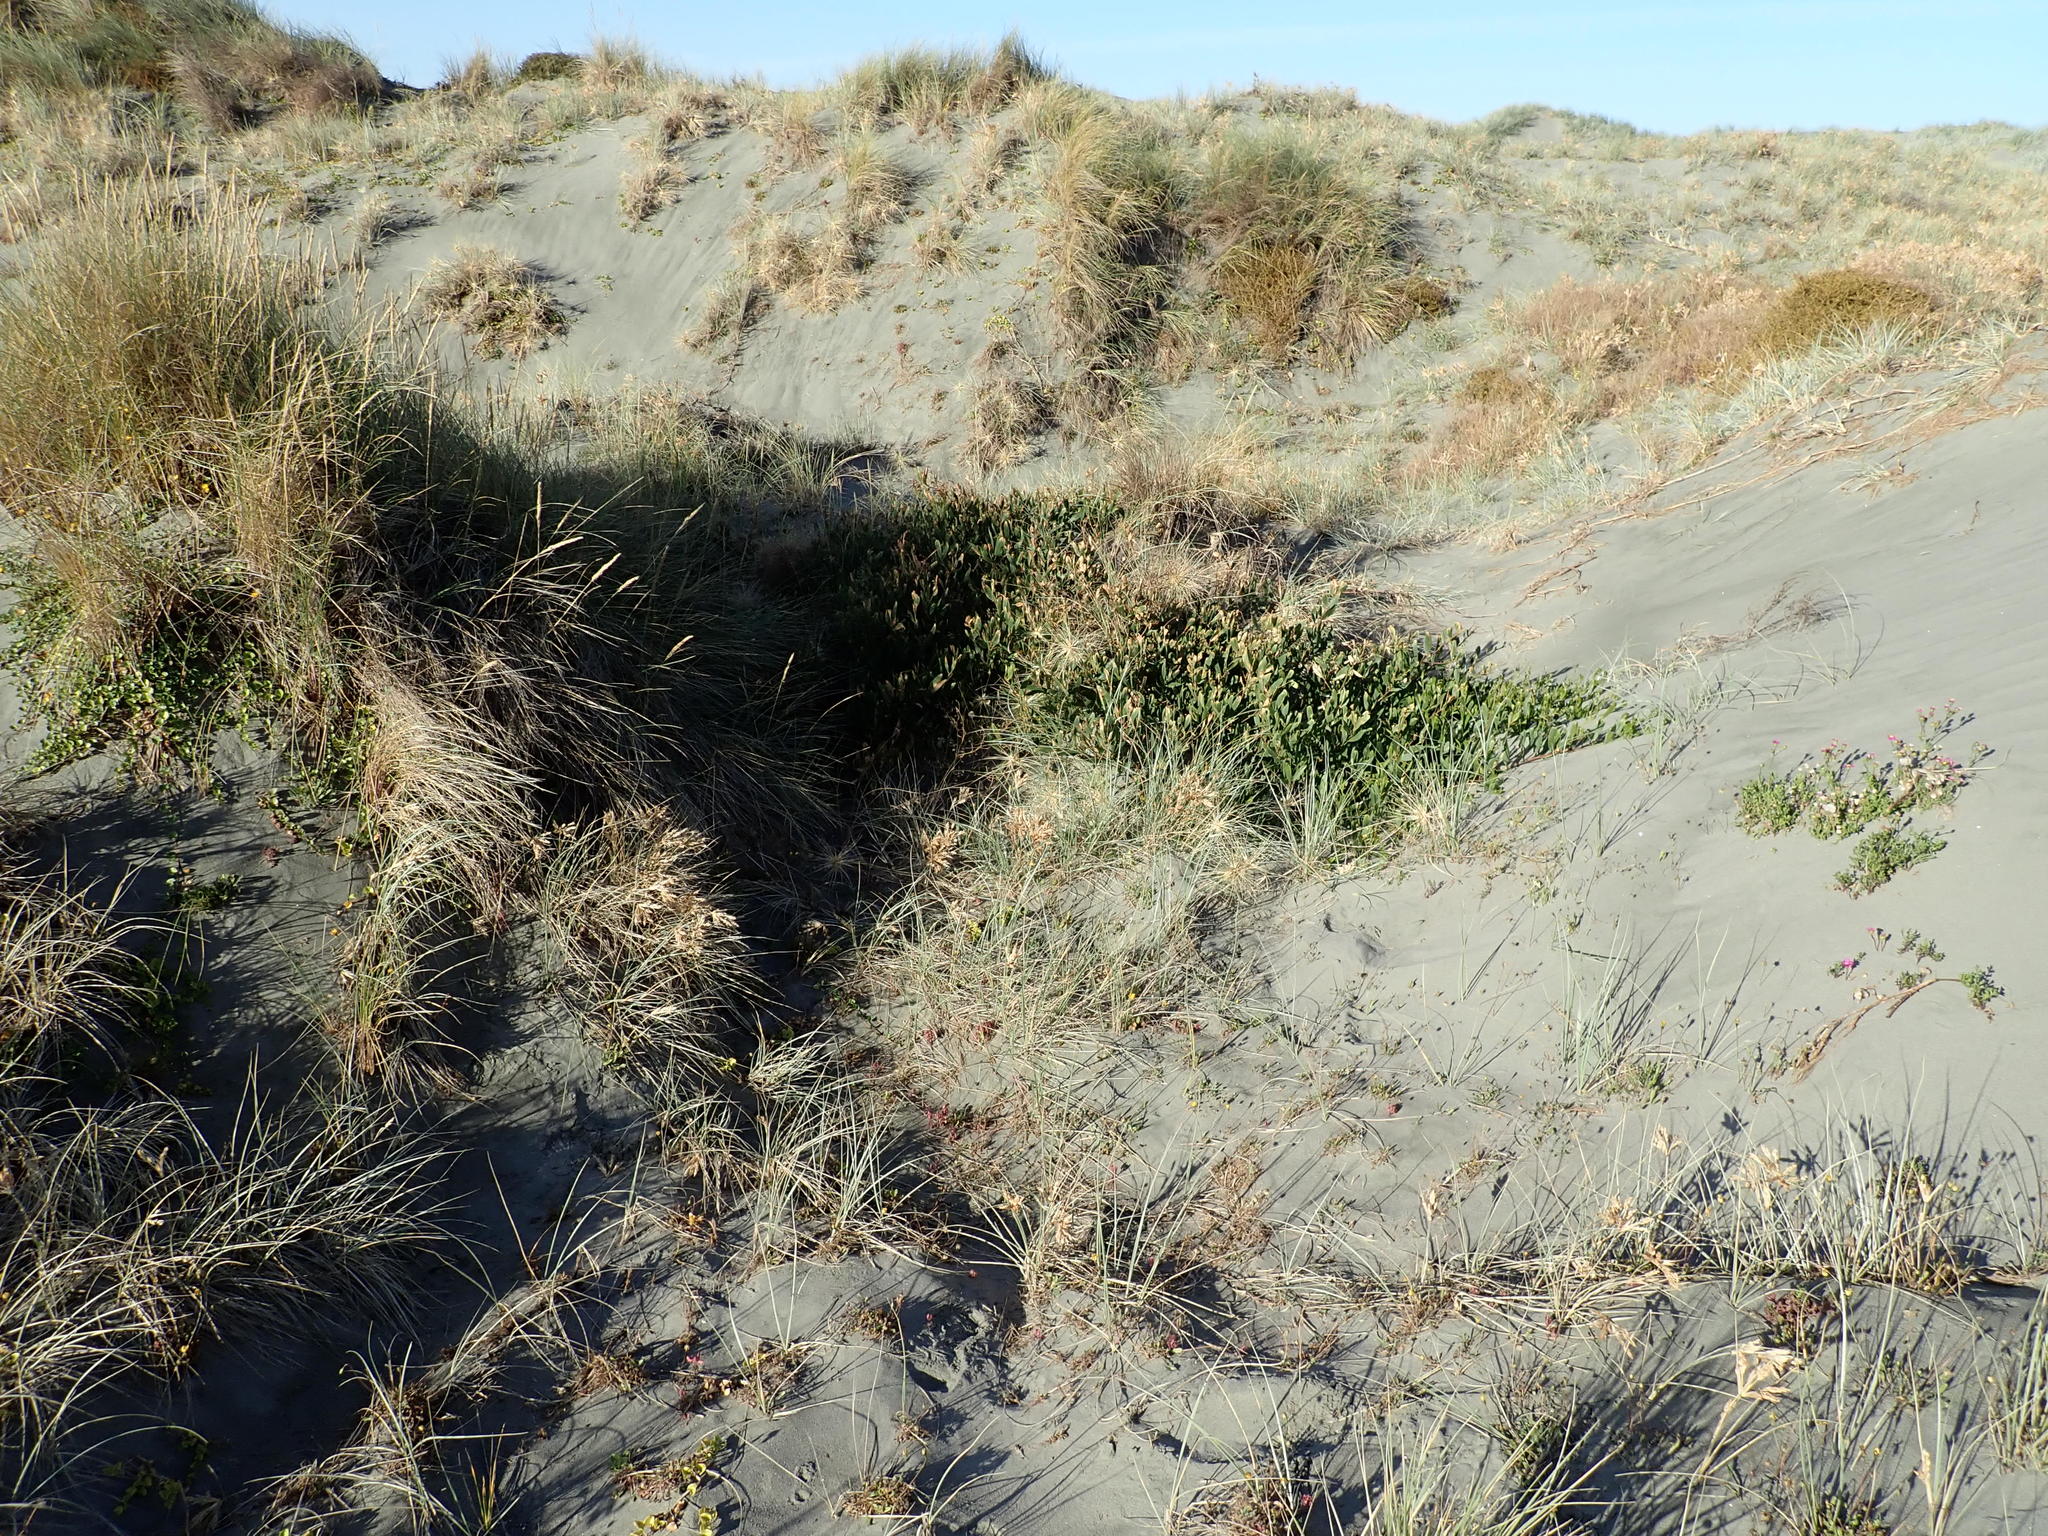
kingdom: Plantae
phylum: Tracheophyta
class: Magnoliopsida
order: Fabales
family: Fabaceae
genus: Acacia
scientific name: Acacia longifolia
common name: Sydney golden wattle
